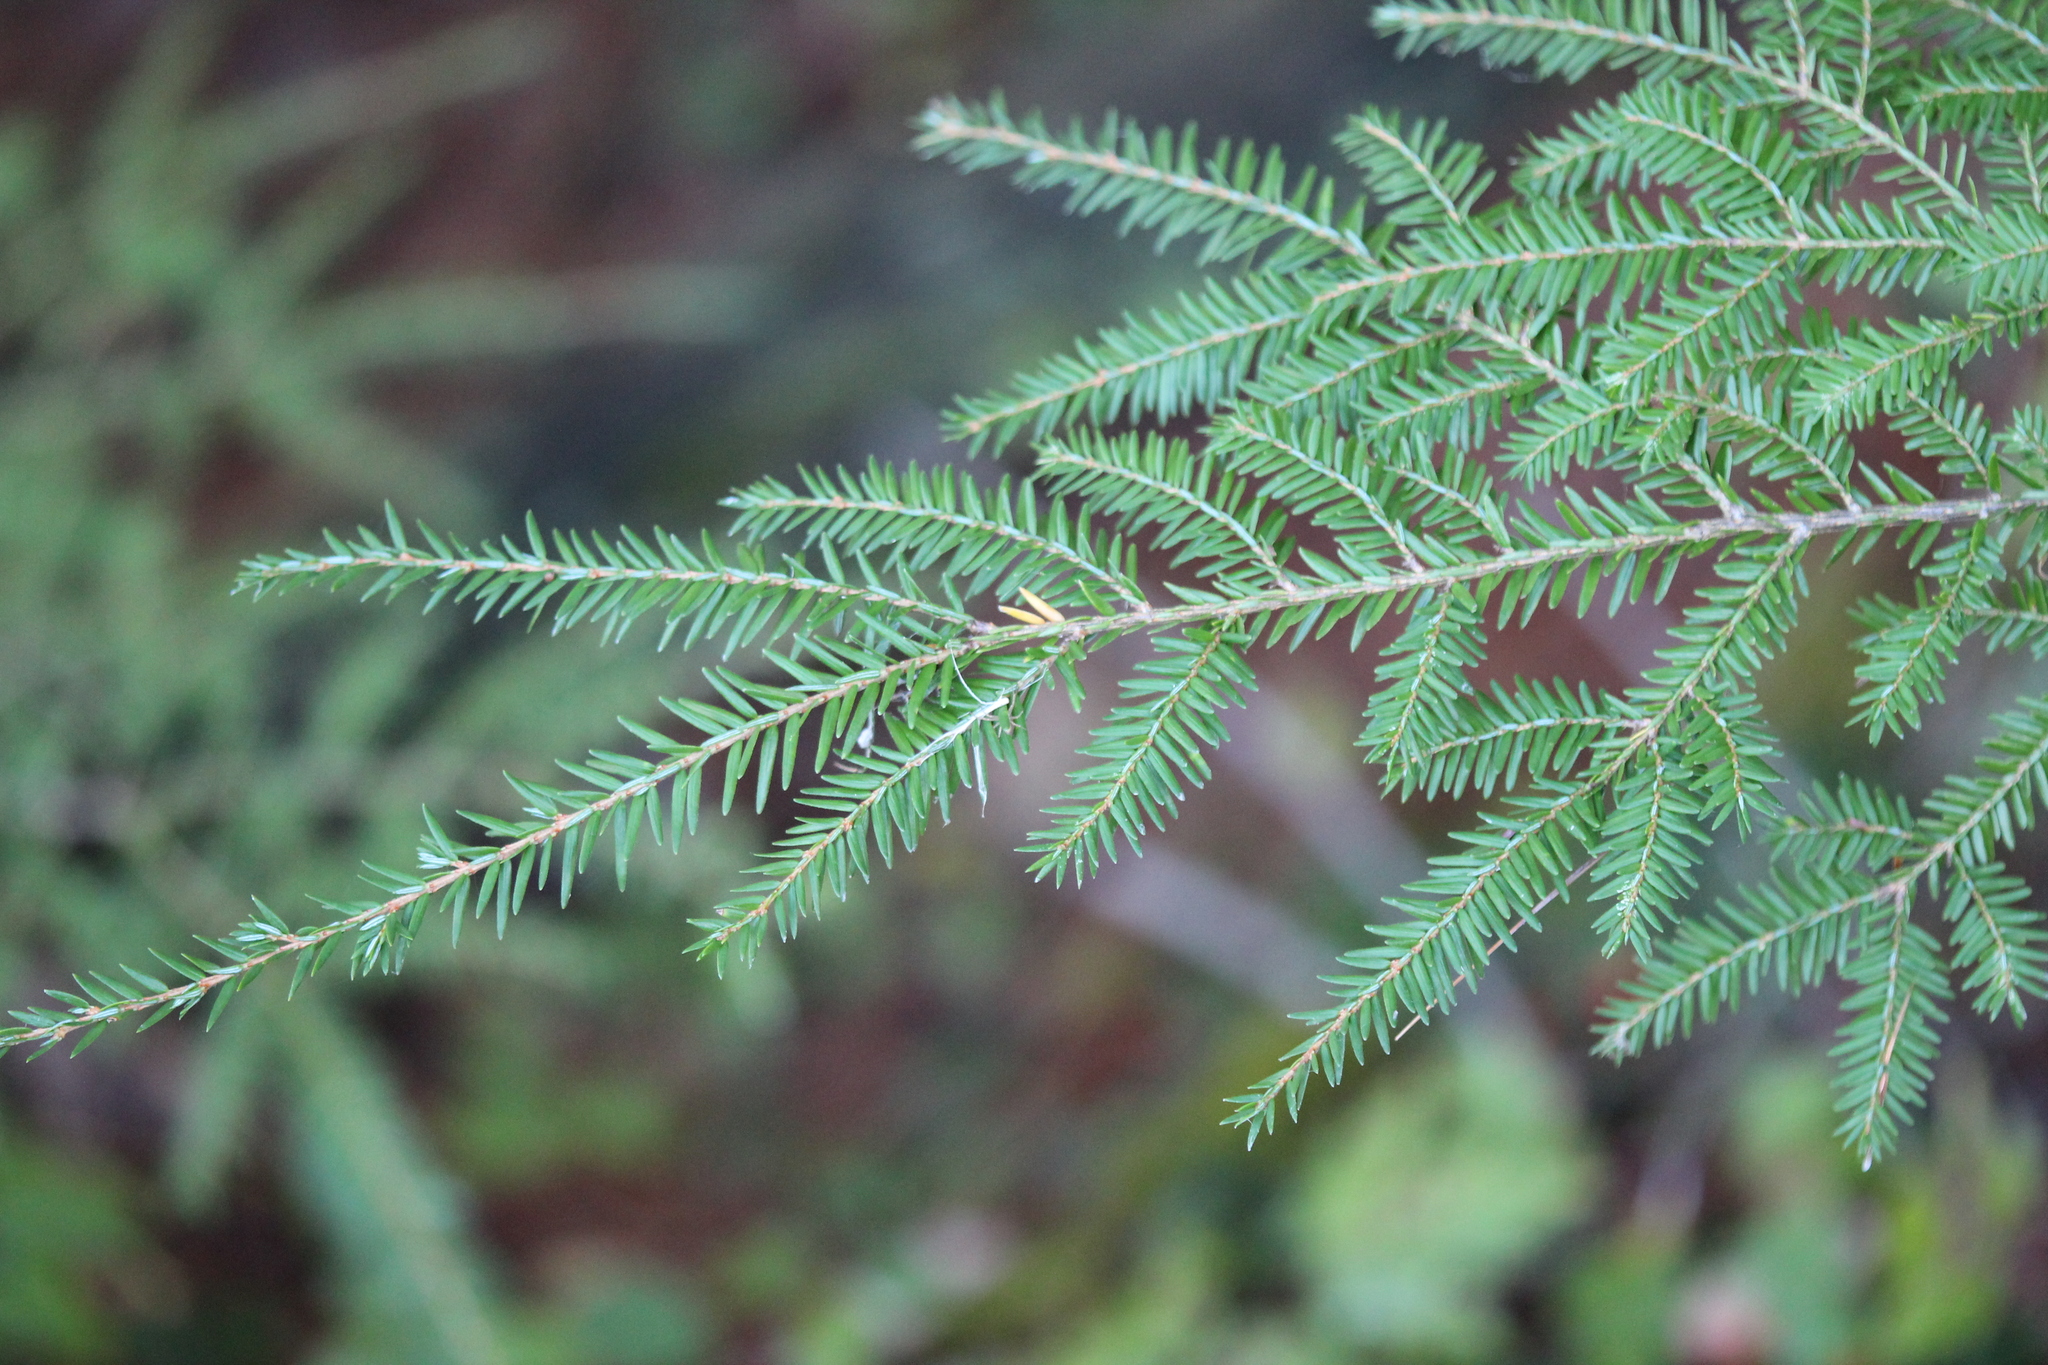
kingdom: Plantae
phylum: Tracheophyta
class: Pinopsida
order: Pinales
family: Pinaceae
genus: Tsuga
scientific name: Tsuga canadensis
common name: Eastern hemlock
